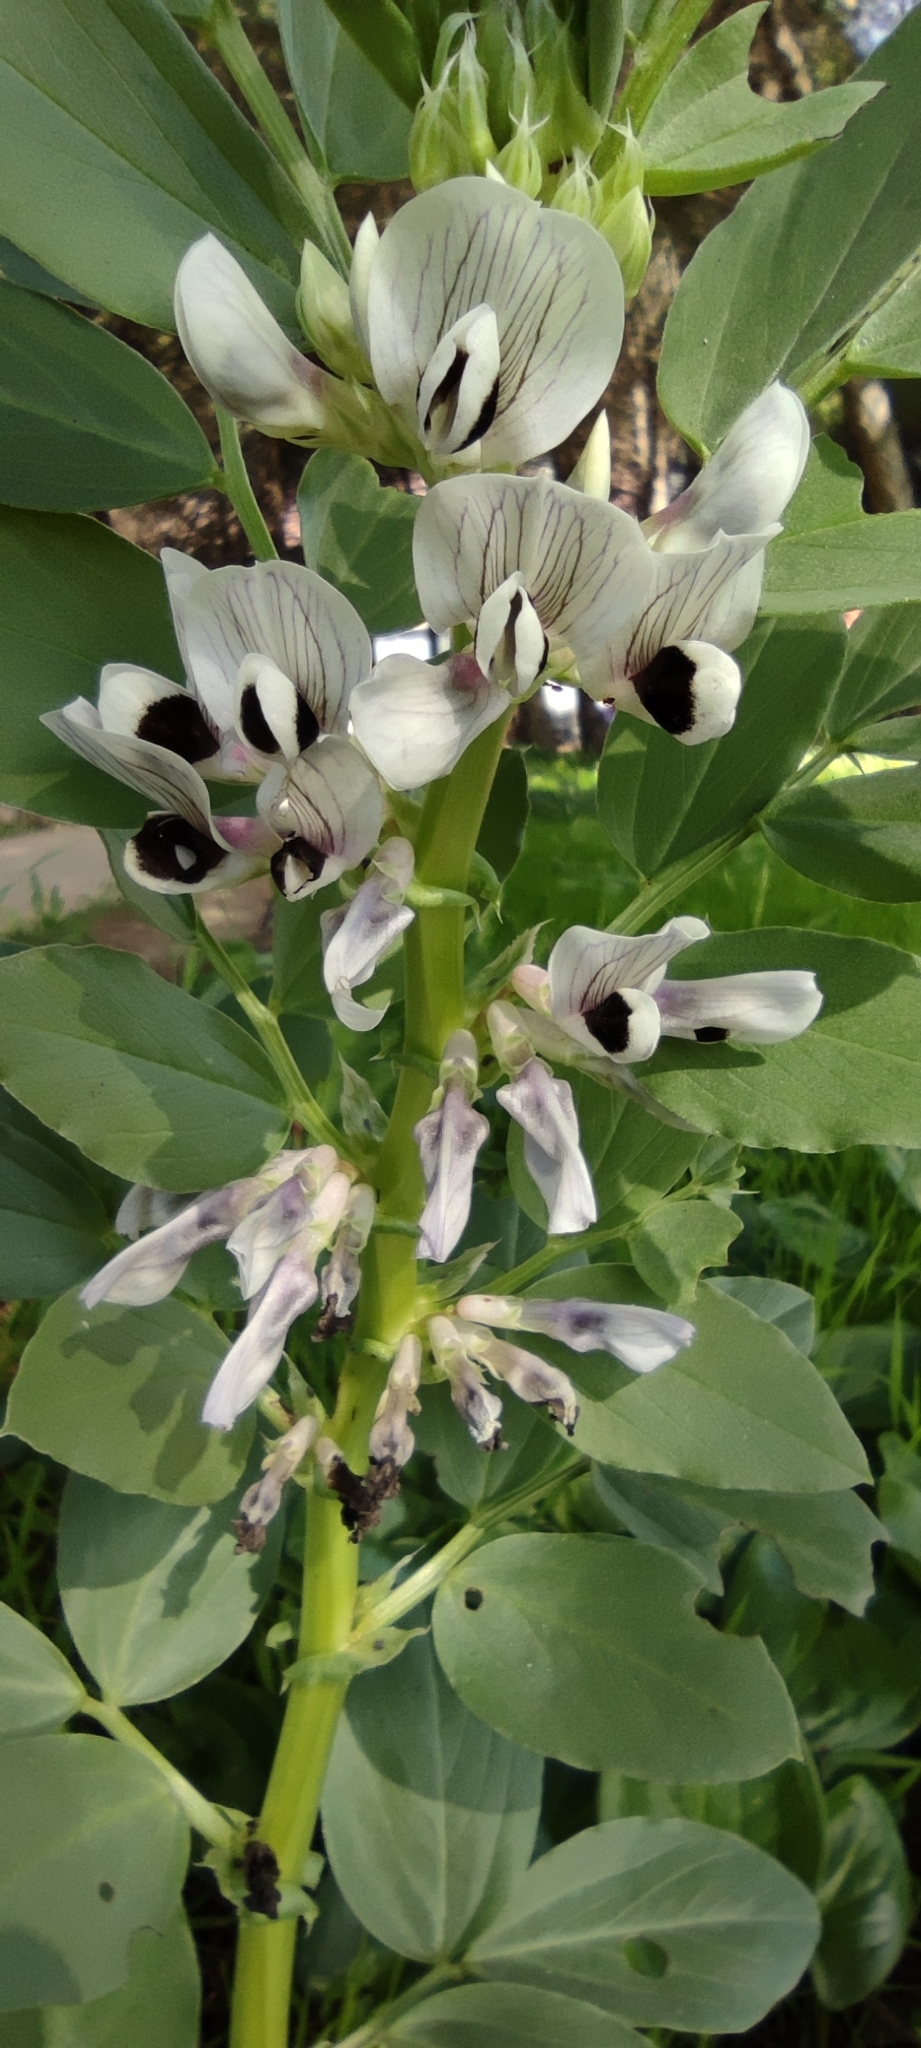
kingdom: Plantae
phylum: Tracheophyta
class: Magnoliopsida
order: Fabales
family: Fabaceae
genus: Vicia
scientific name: Vicia faba
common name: Broad bean
